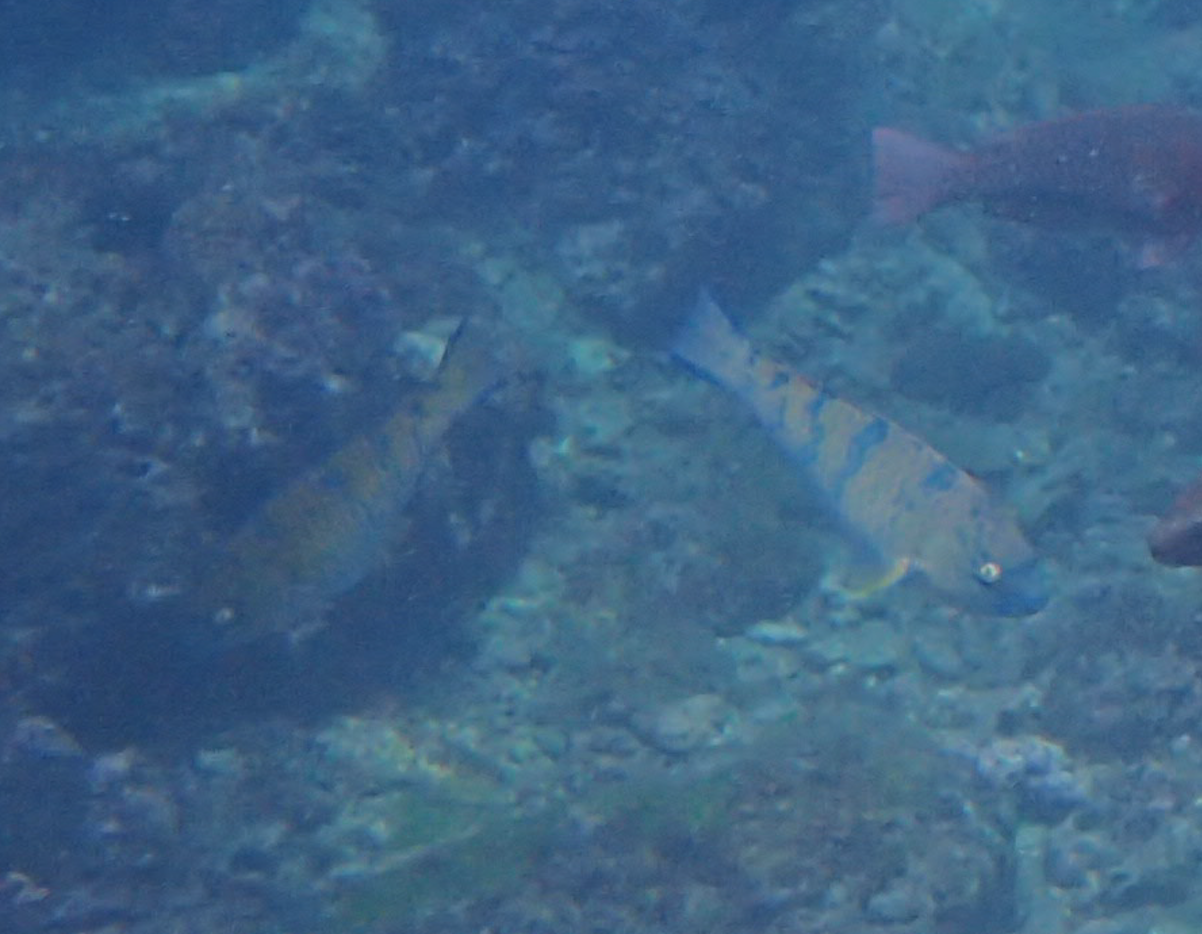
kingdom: Animalia
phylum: Chordata
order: Perciformes
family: Scaridae
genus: Scarus
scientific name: Scarus ghobban
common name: Blue-barred parrotfish
